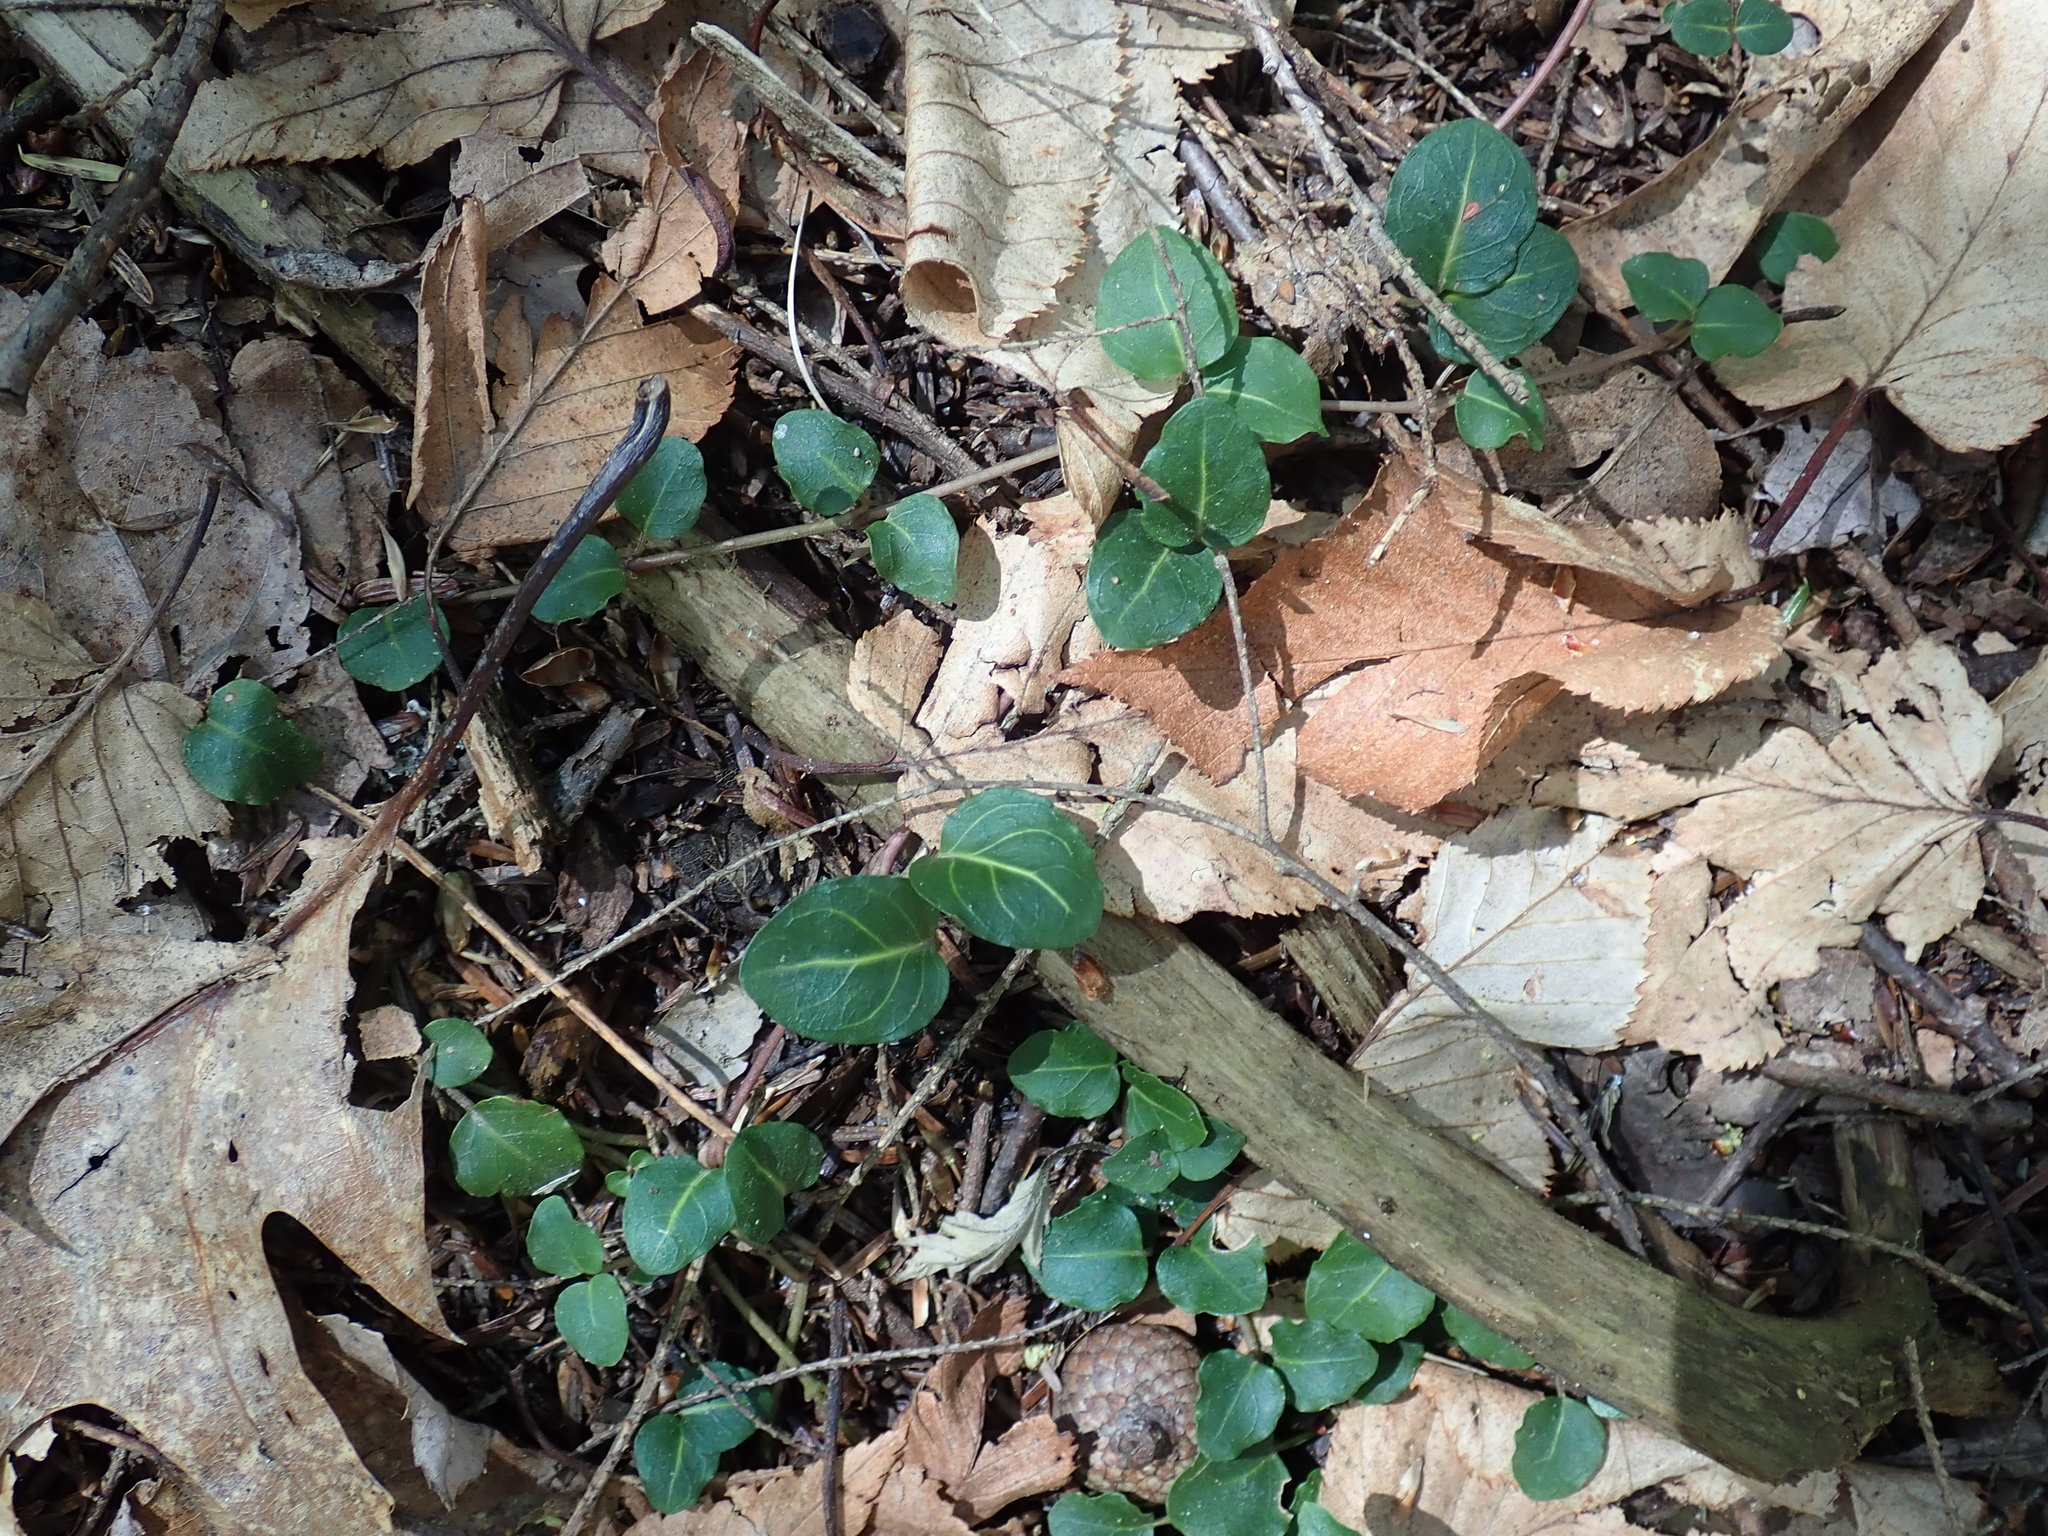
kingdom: Plantae
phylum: Tracheophyta
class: Magnoliopsida
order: Gentianales
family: Rubiaceae
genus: Mitchella
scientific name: Mitchella repens
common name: Partridge-berry
